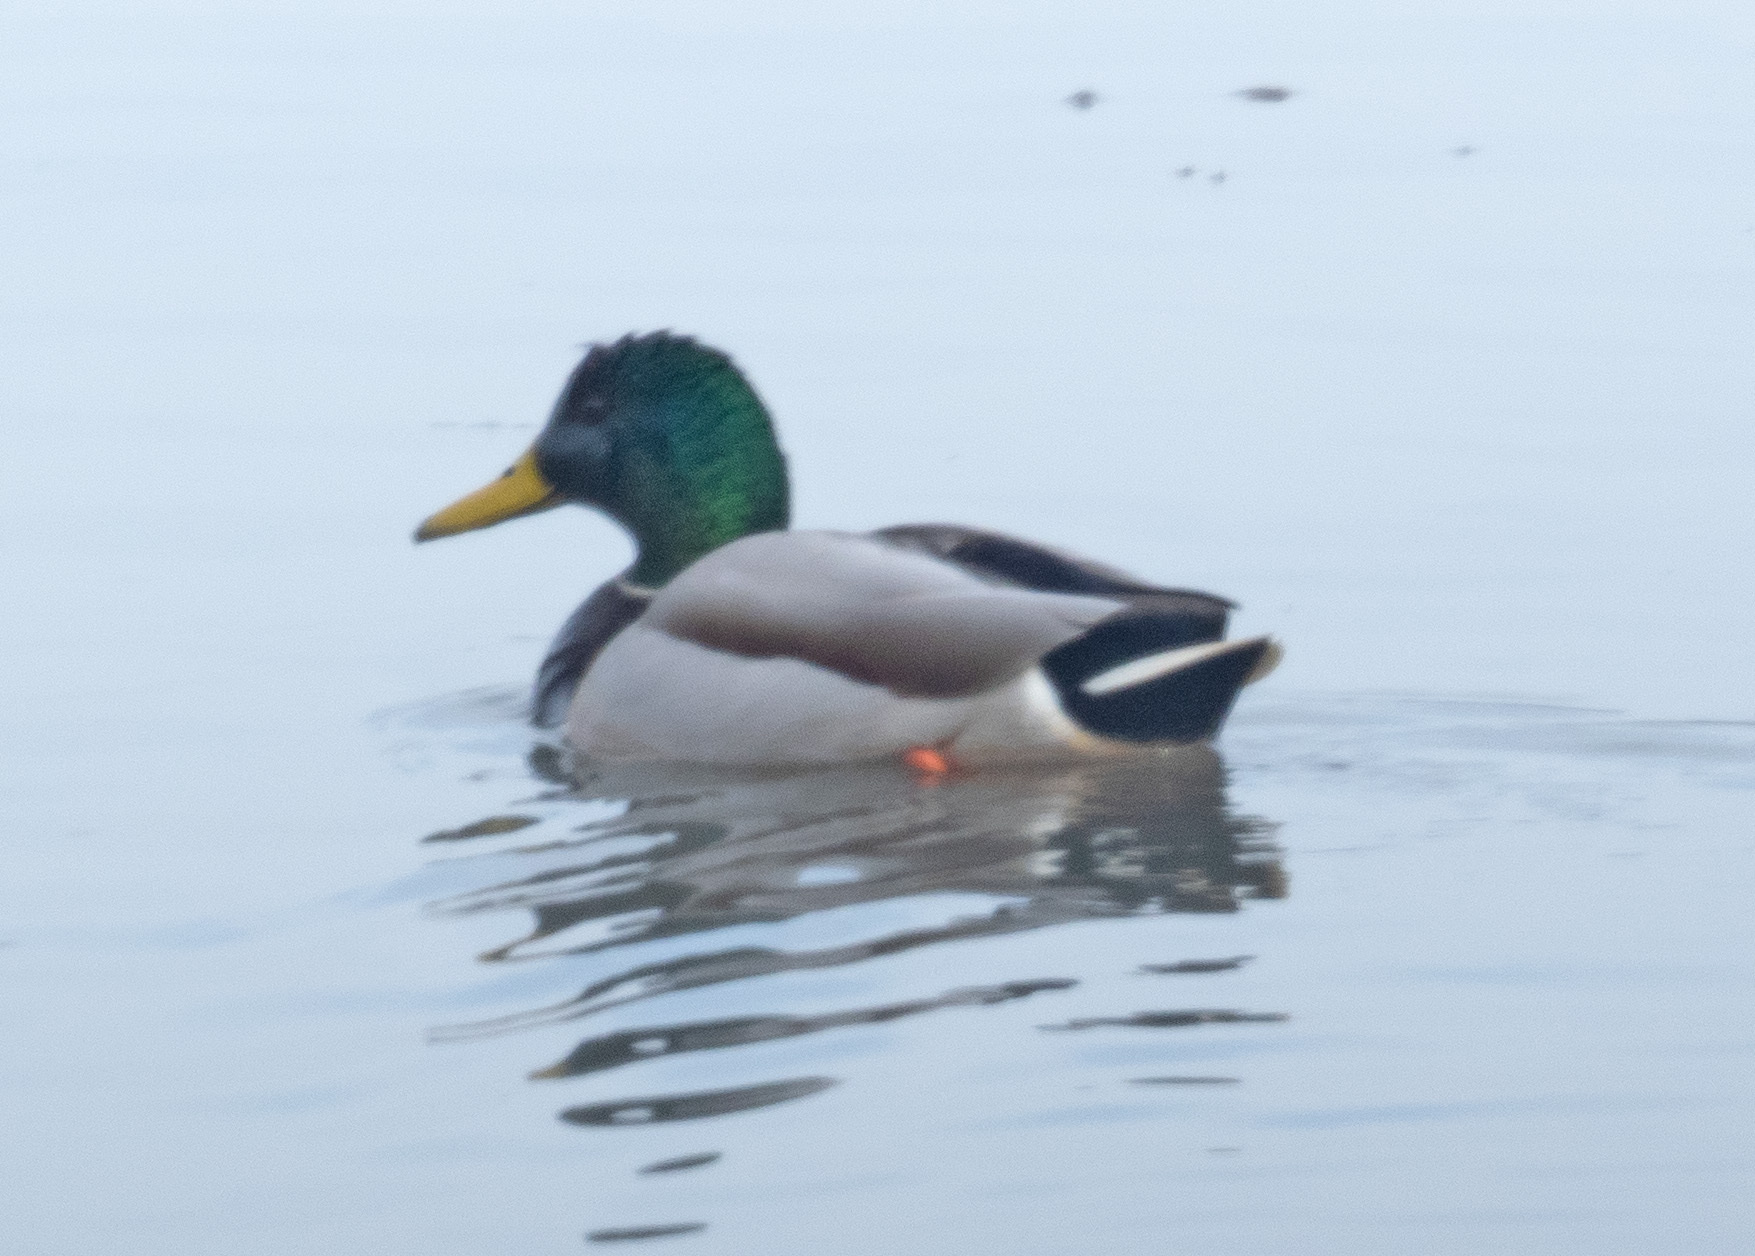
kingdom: Animalia
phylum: Chordata
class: Aves
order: Anseriformes
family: Anatidae
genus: Anas
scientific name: Anas platyrhynchos
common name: Mallard
